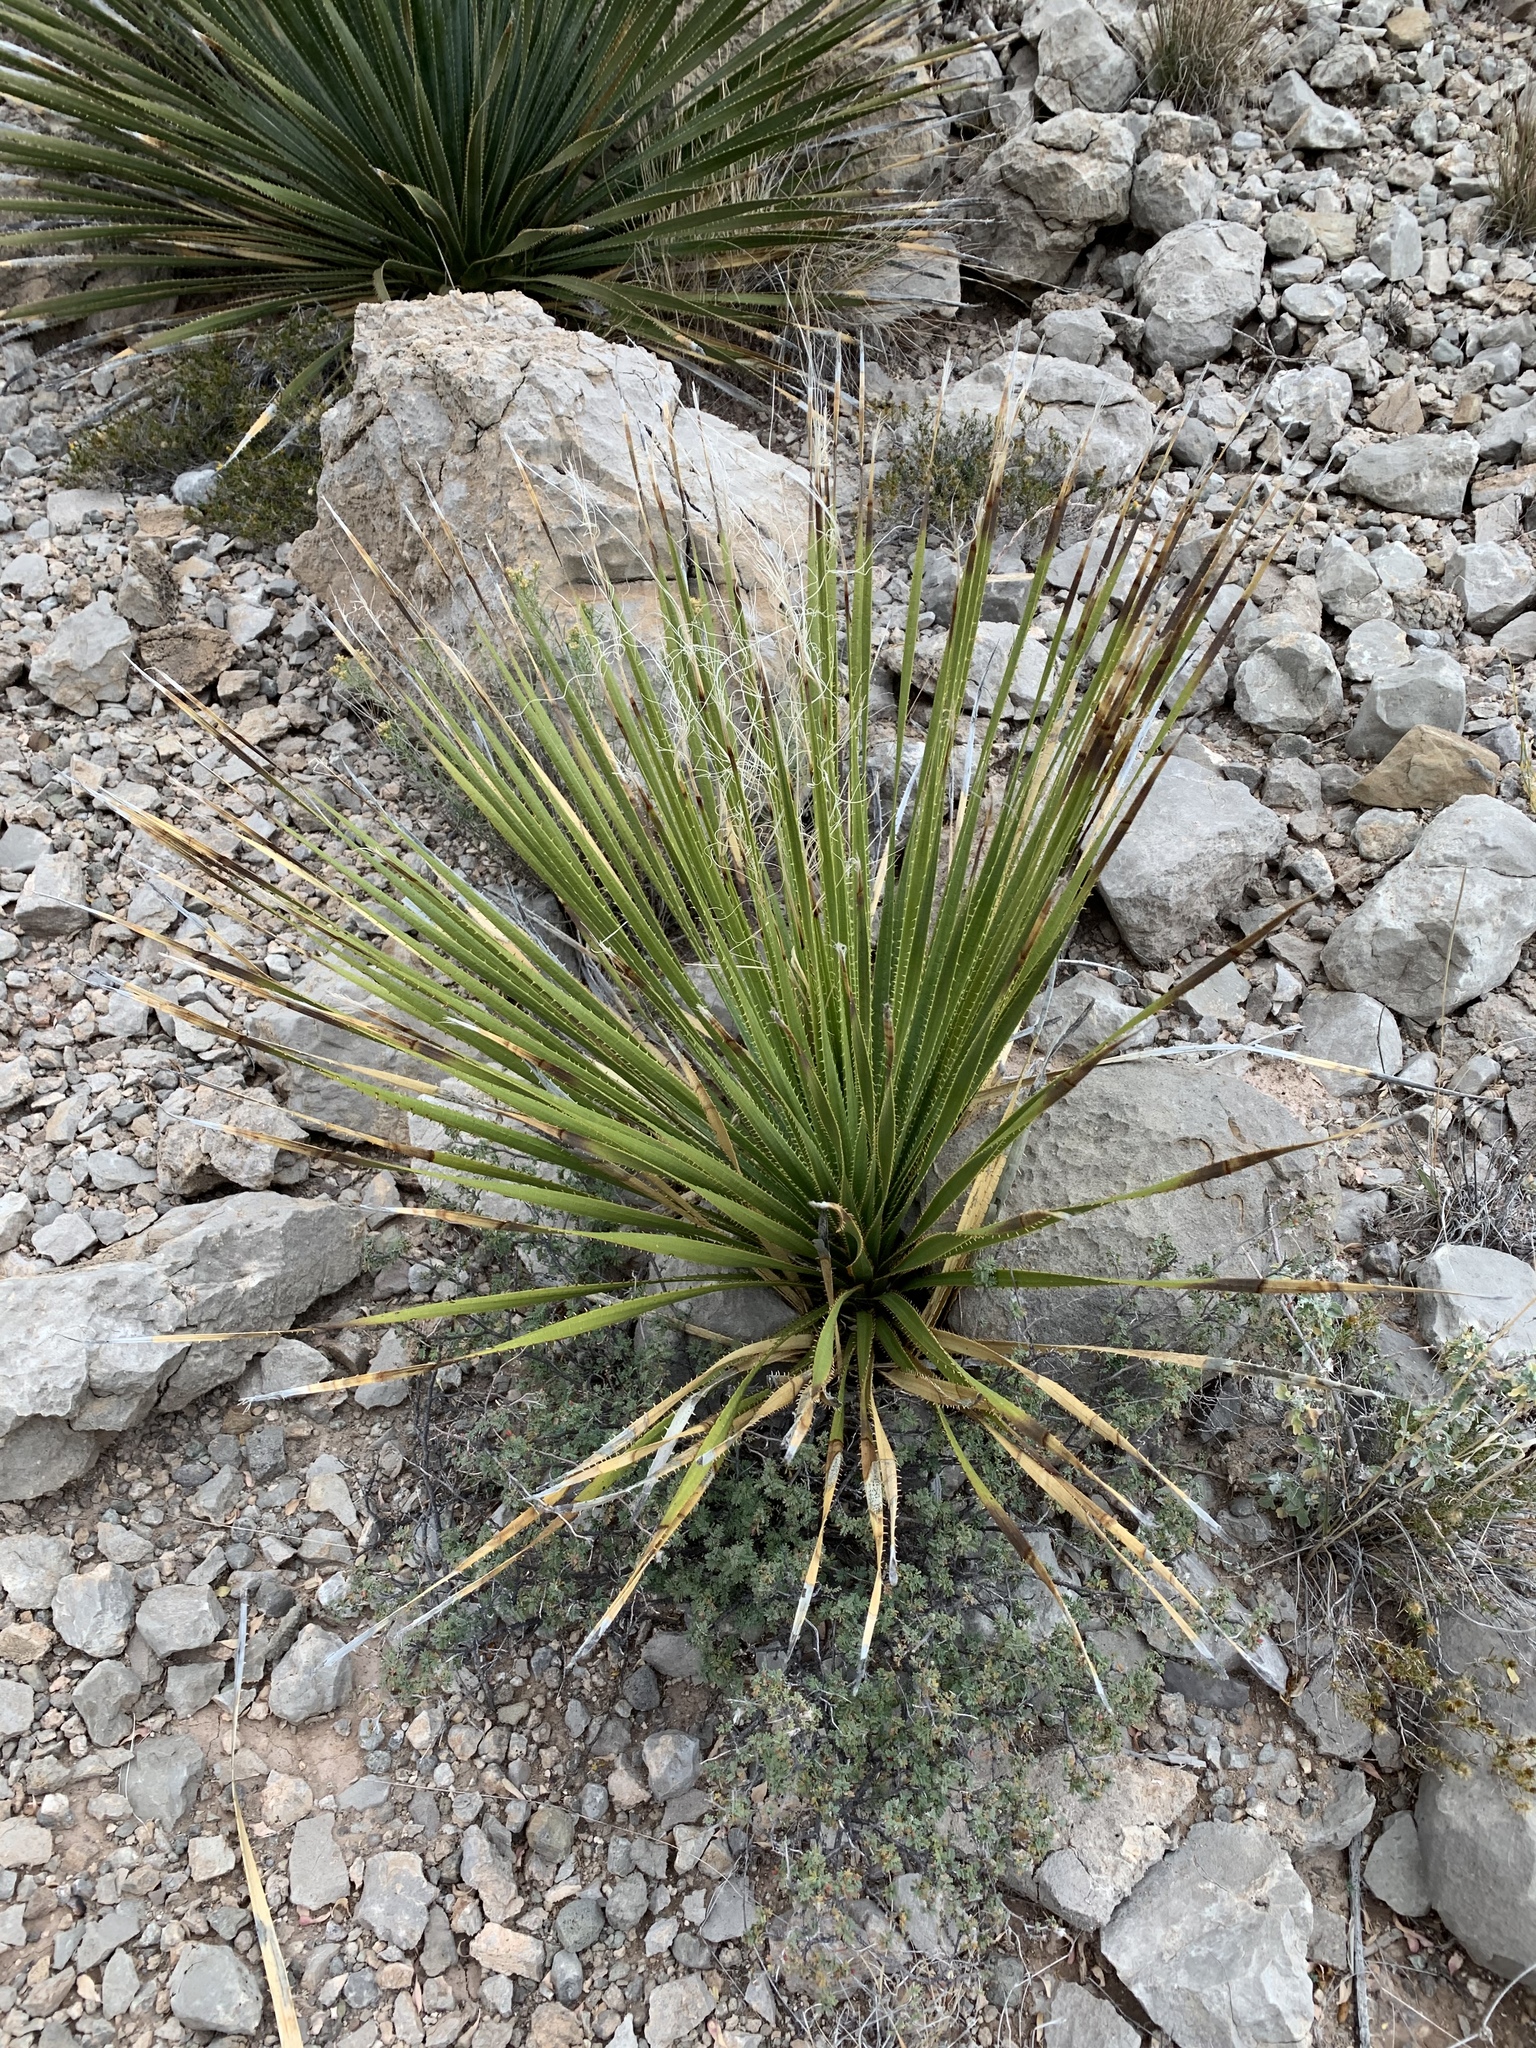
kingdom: Plantae
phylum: Tracheophyta
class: Liliopsida
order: Asparagales
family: Asparagaceae
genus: Dasylirion
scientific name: Dasylirion wheeleri
